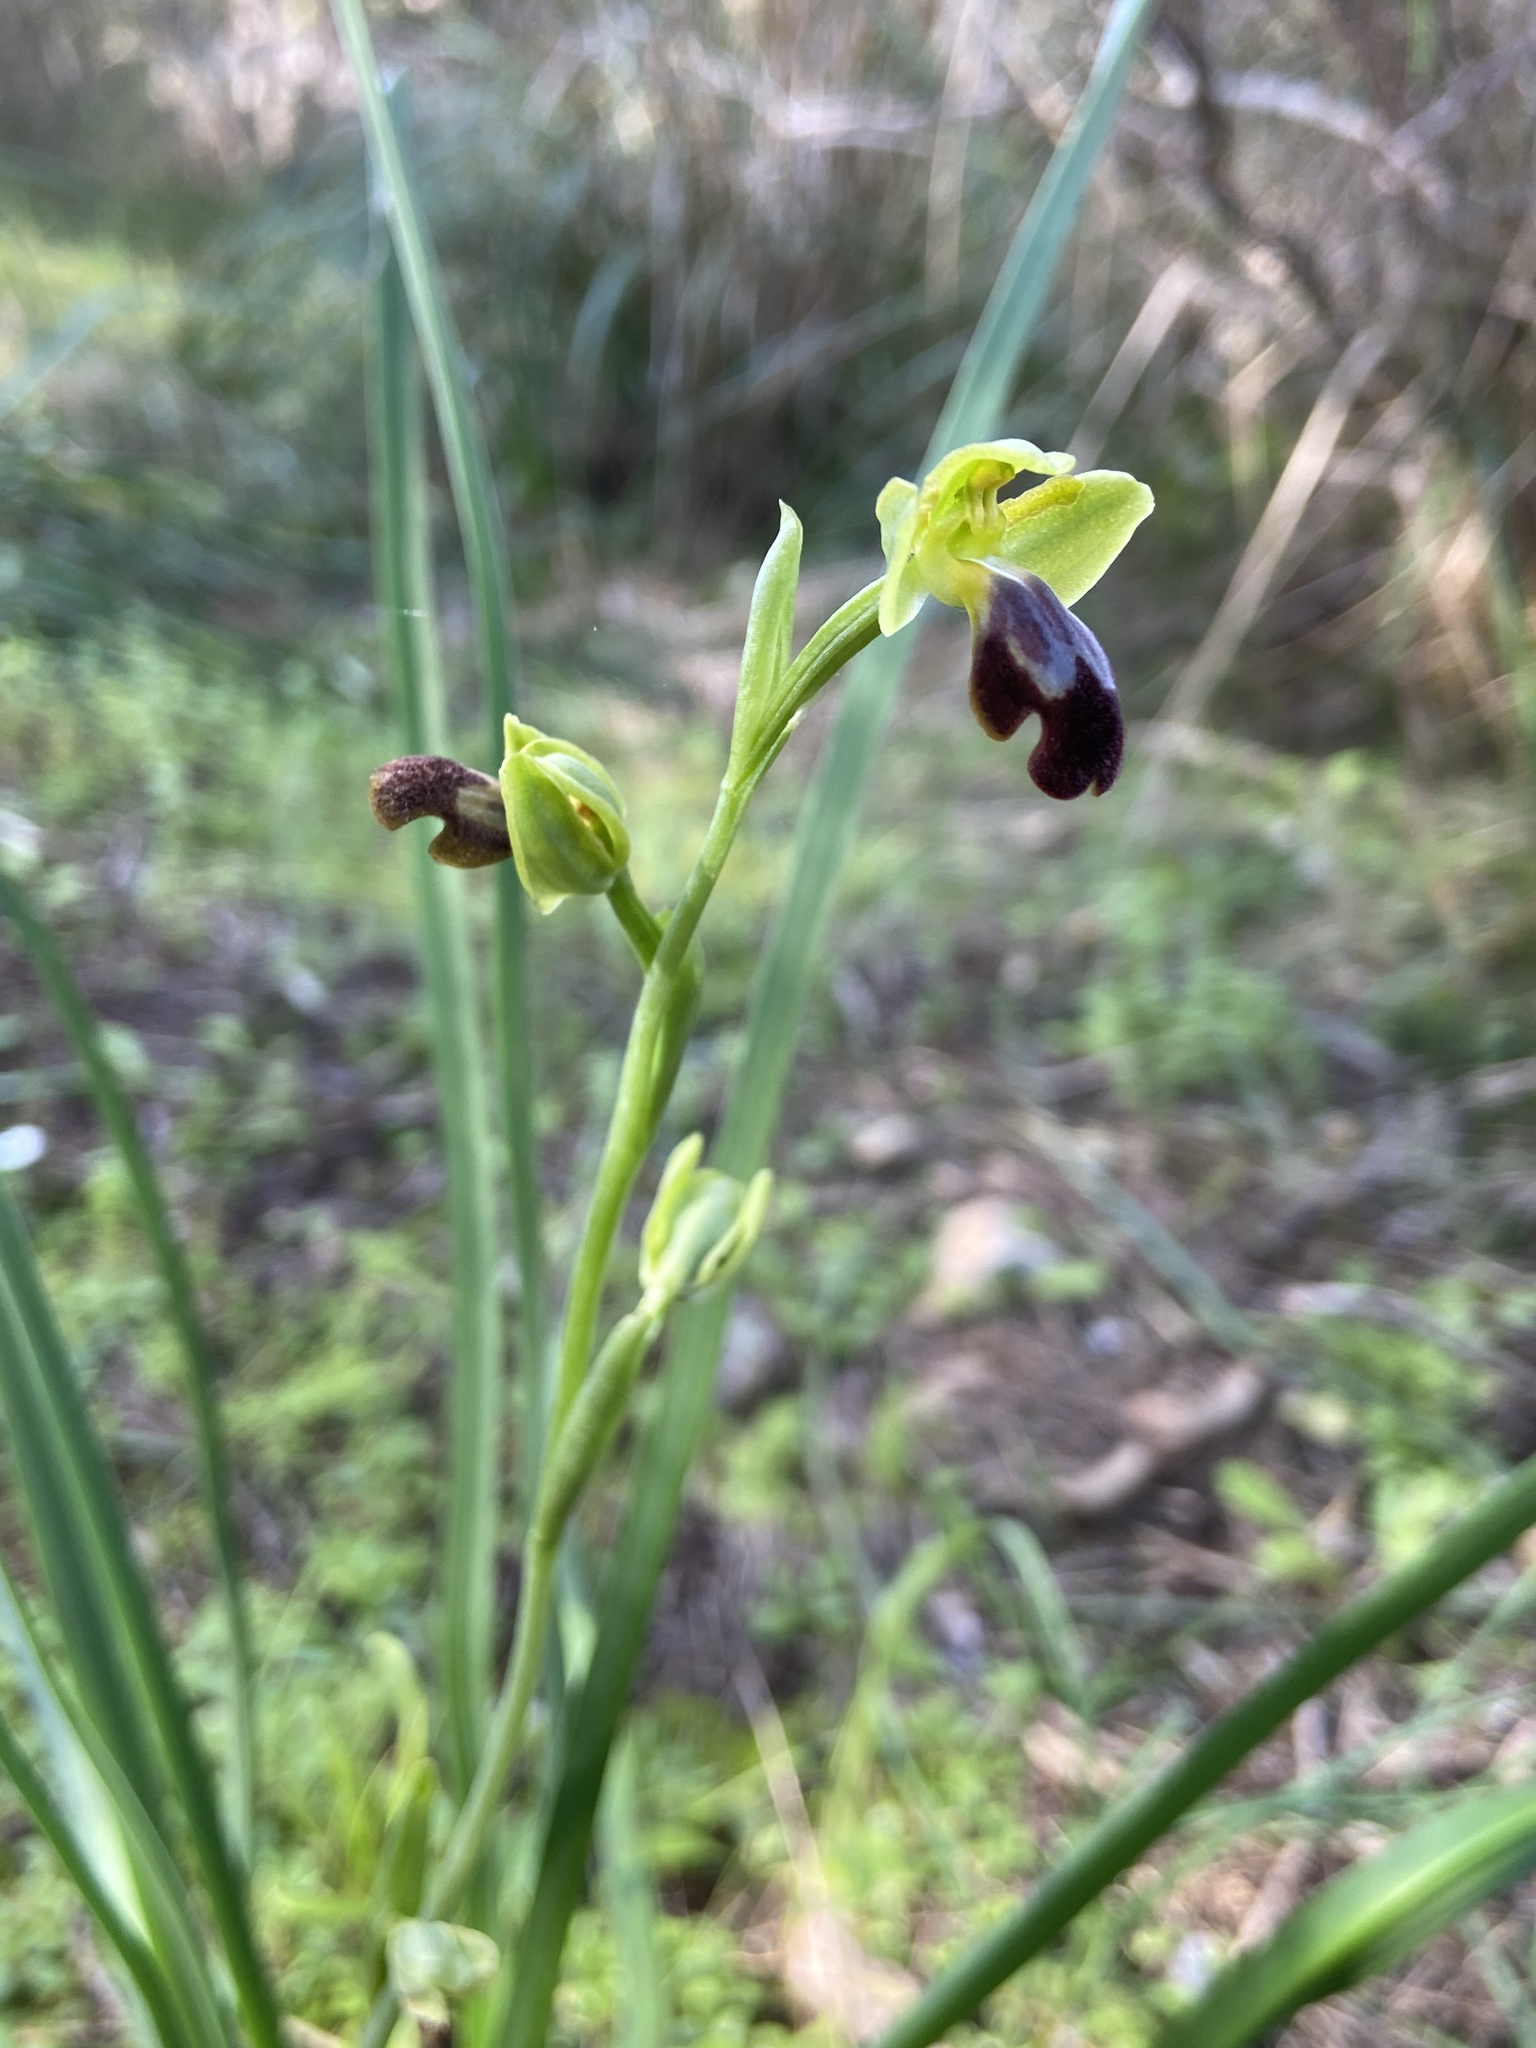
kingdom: Plantae
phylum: Tracheophyta
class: Liliopsida
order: Asparagales
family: Orchidaceae
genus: Ophrys
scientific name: Ophrys fusca
